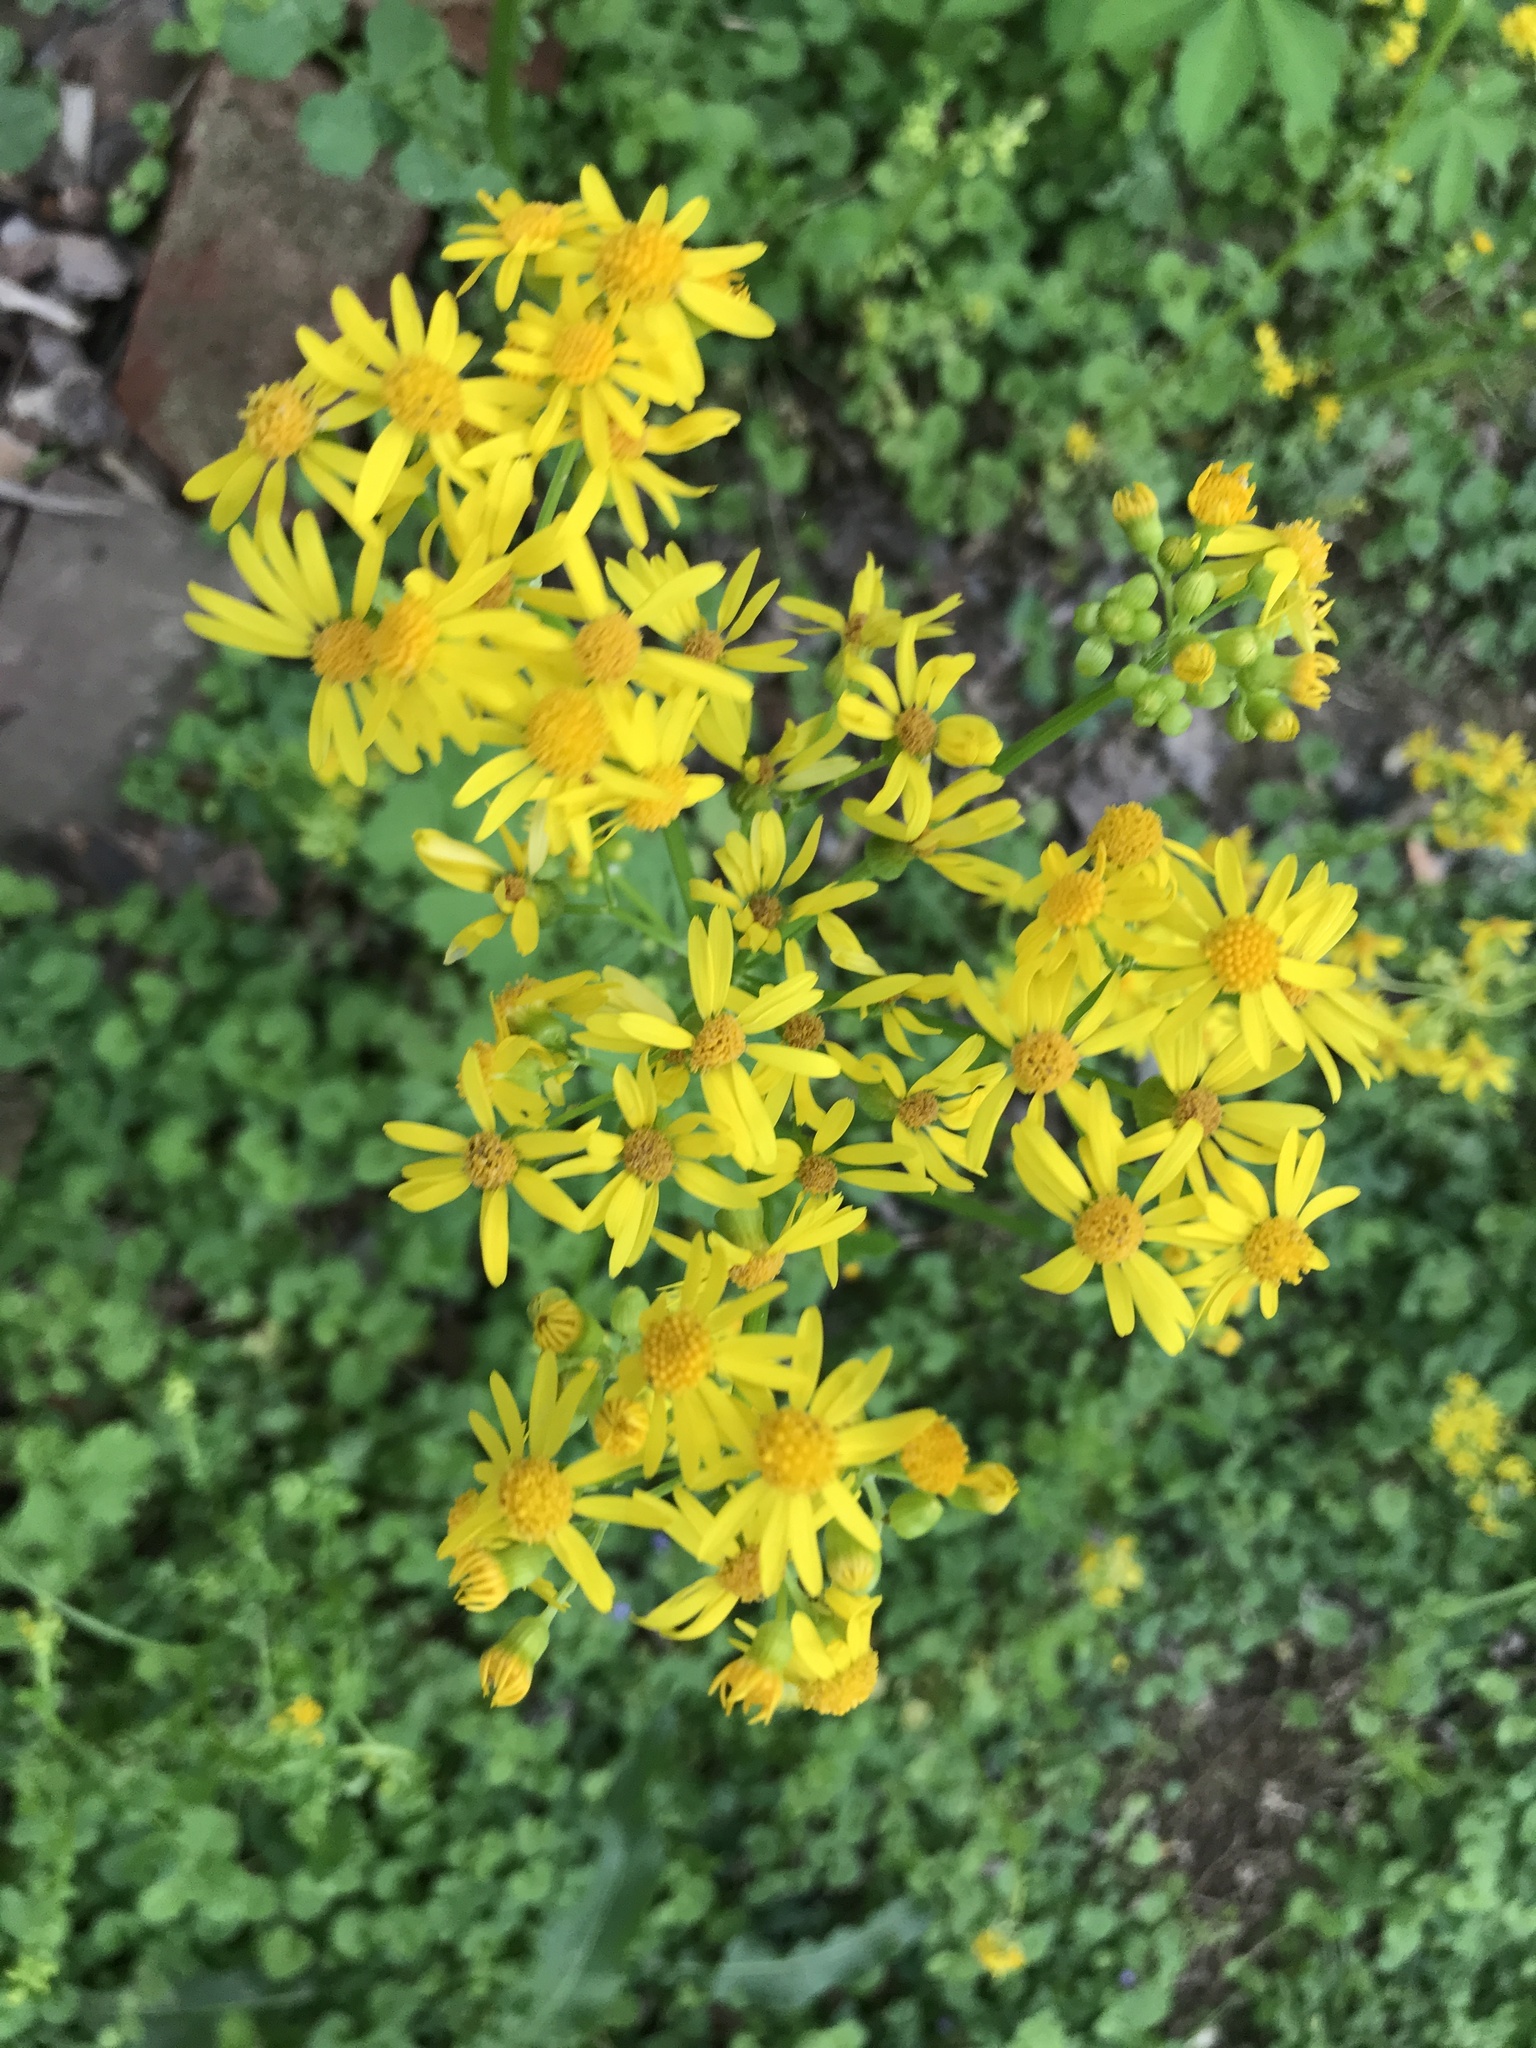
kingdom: Plantae
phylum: Tracheophyta
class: Magnoliopsida
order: Asterales
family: Asteraceae
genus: Packera
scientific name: Packera glabella
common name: Butterweed
